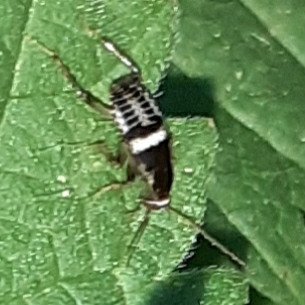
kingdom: Animalia
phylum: Arthropoda
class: Insecta
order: Blattodea
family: Ectobiidae
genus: Planuncus
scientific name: Planuncus vinzi
